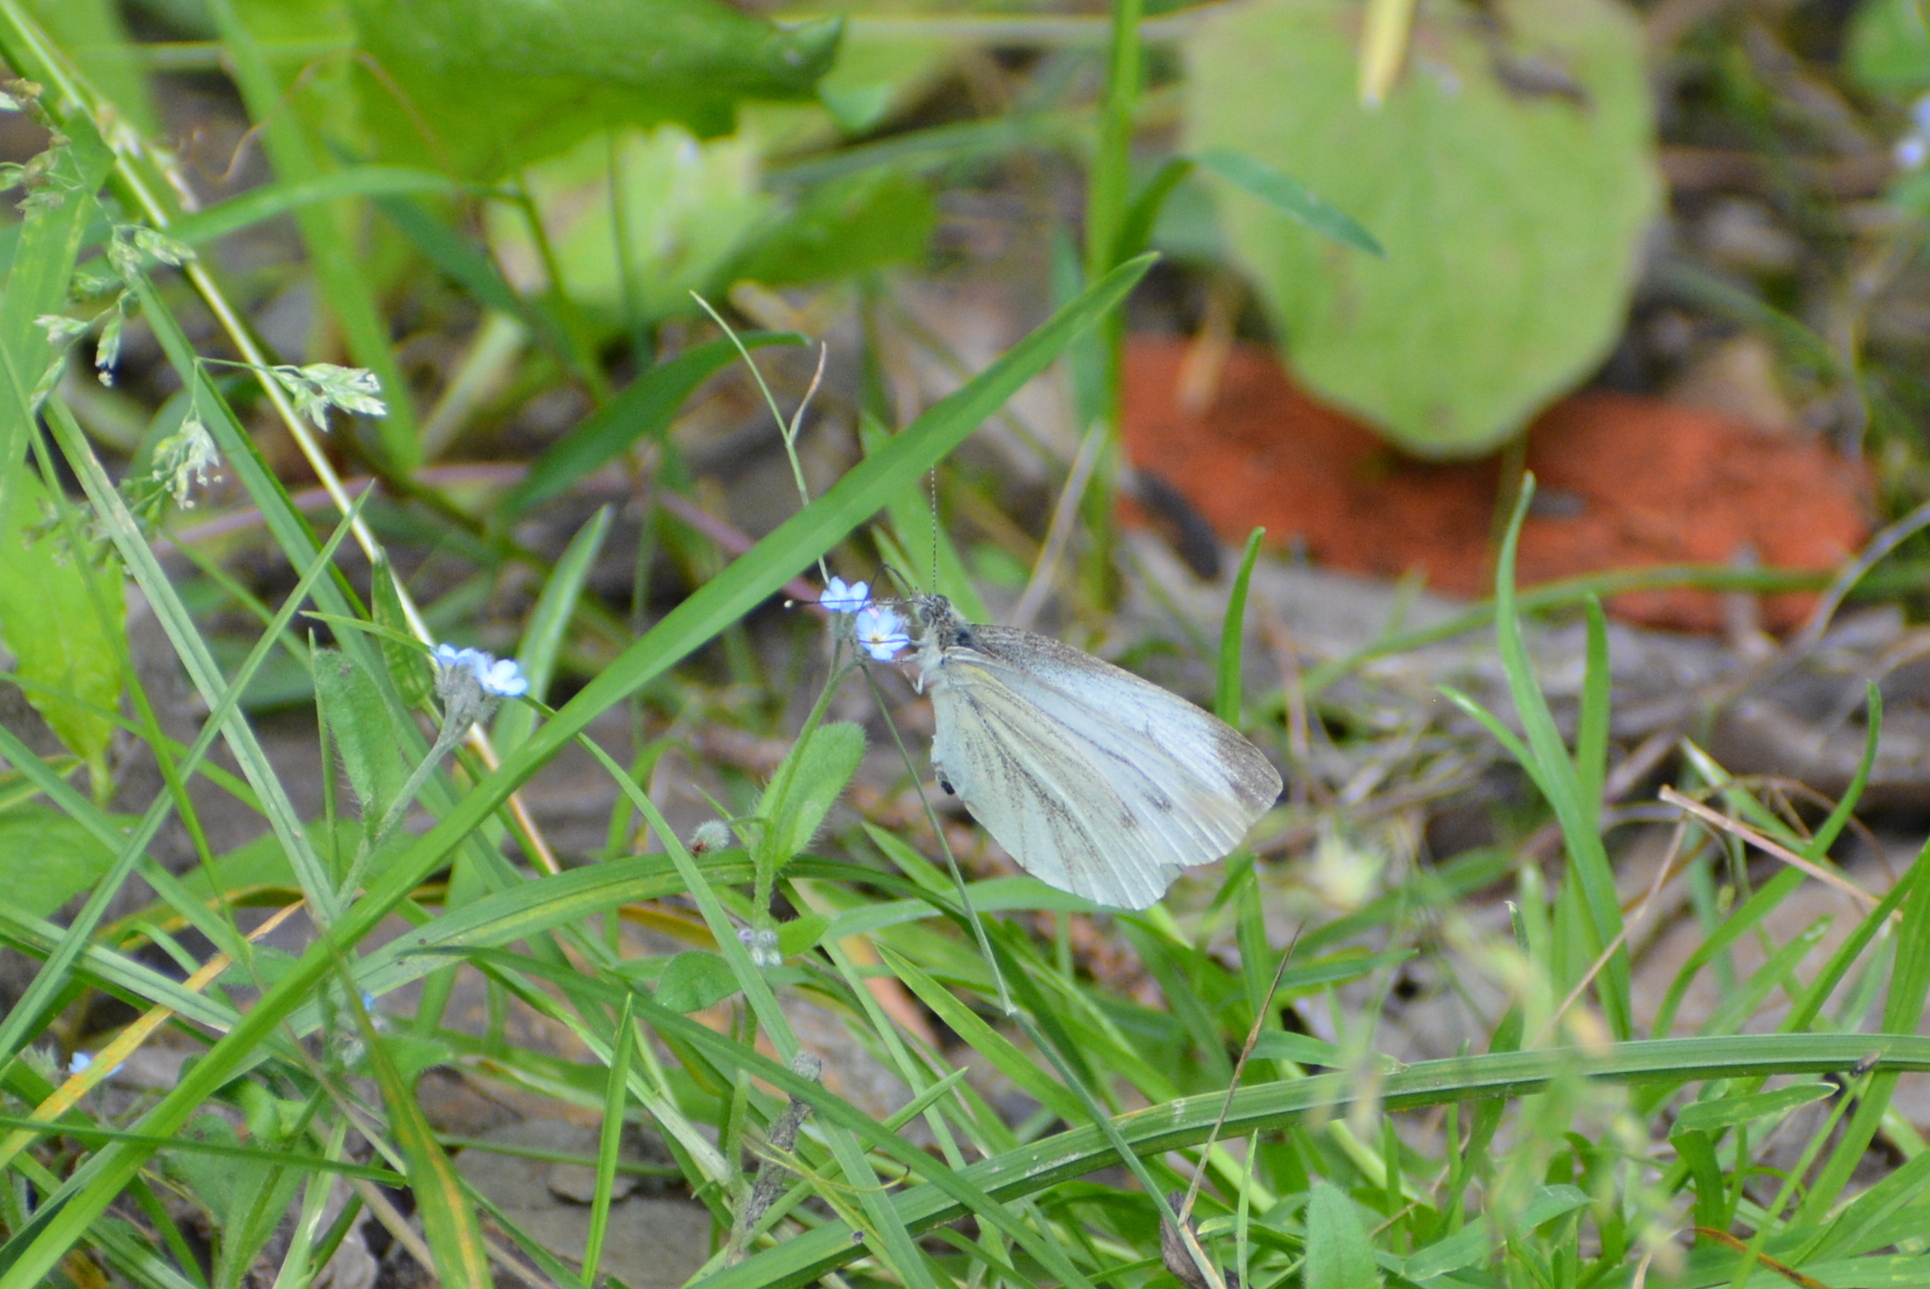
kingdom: Animalia
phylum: Arthropoda
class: Insecta
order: Lepidoptera
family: Pieridae
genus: Pieris
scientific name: Pieris napi
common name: Green-veined white
